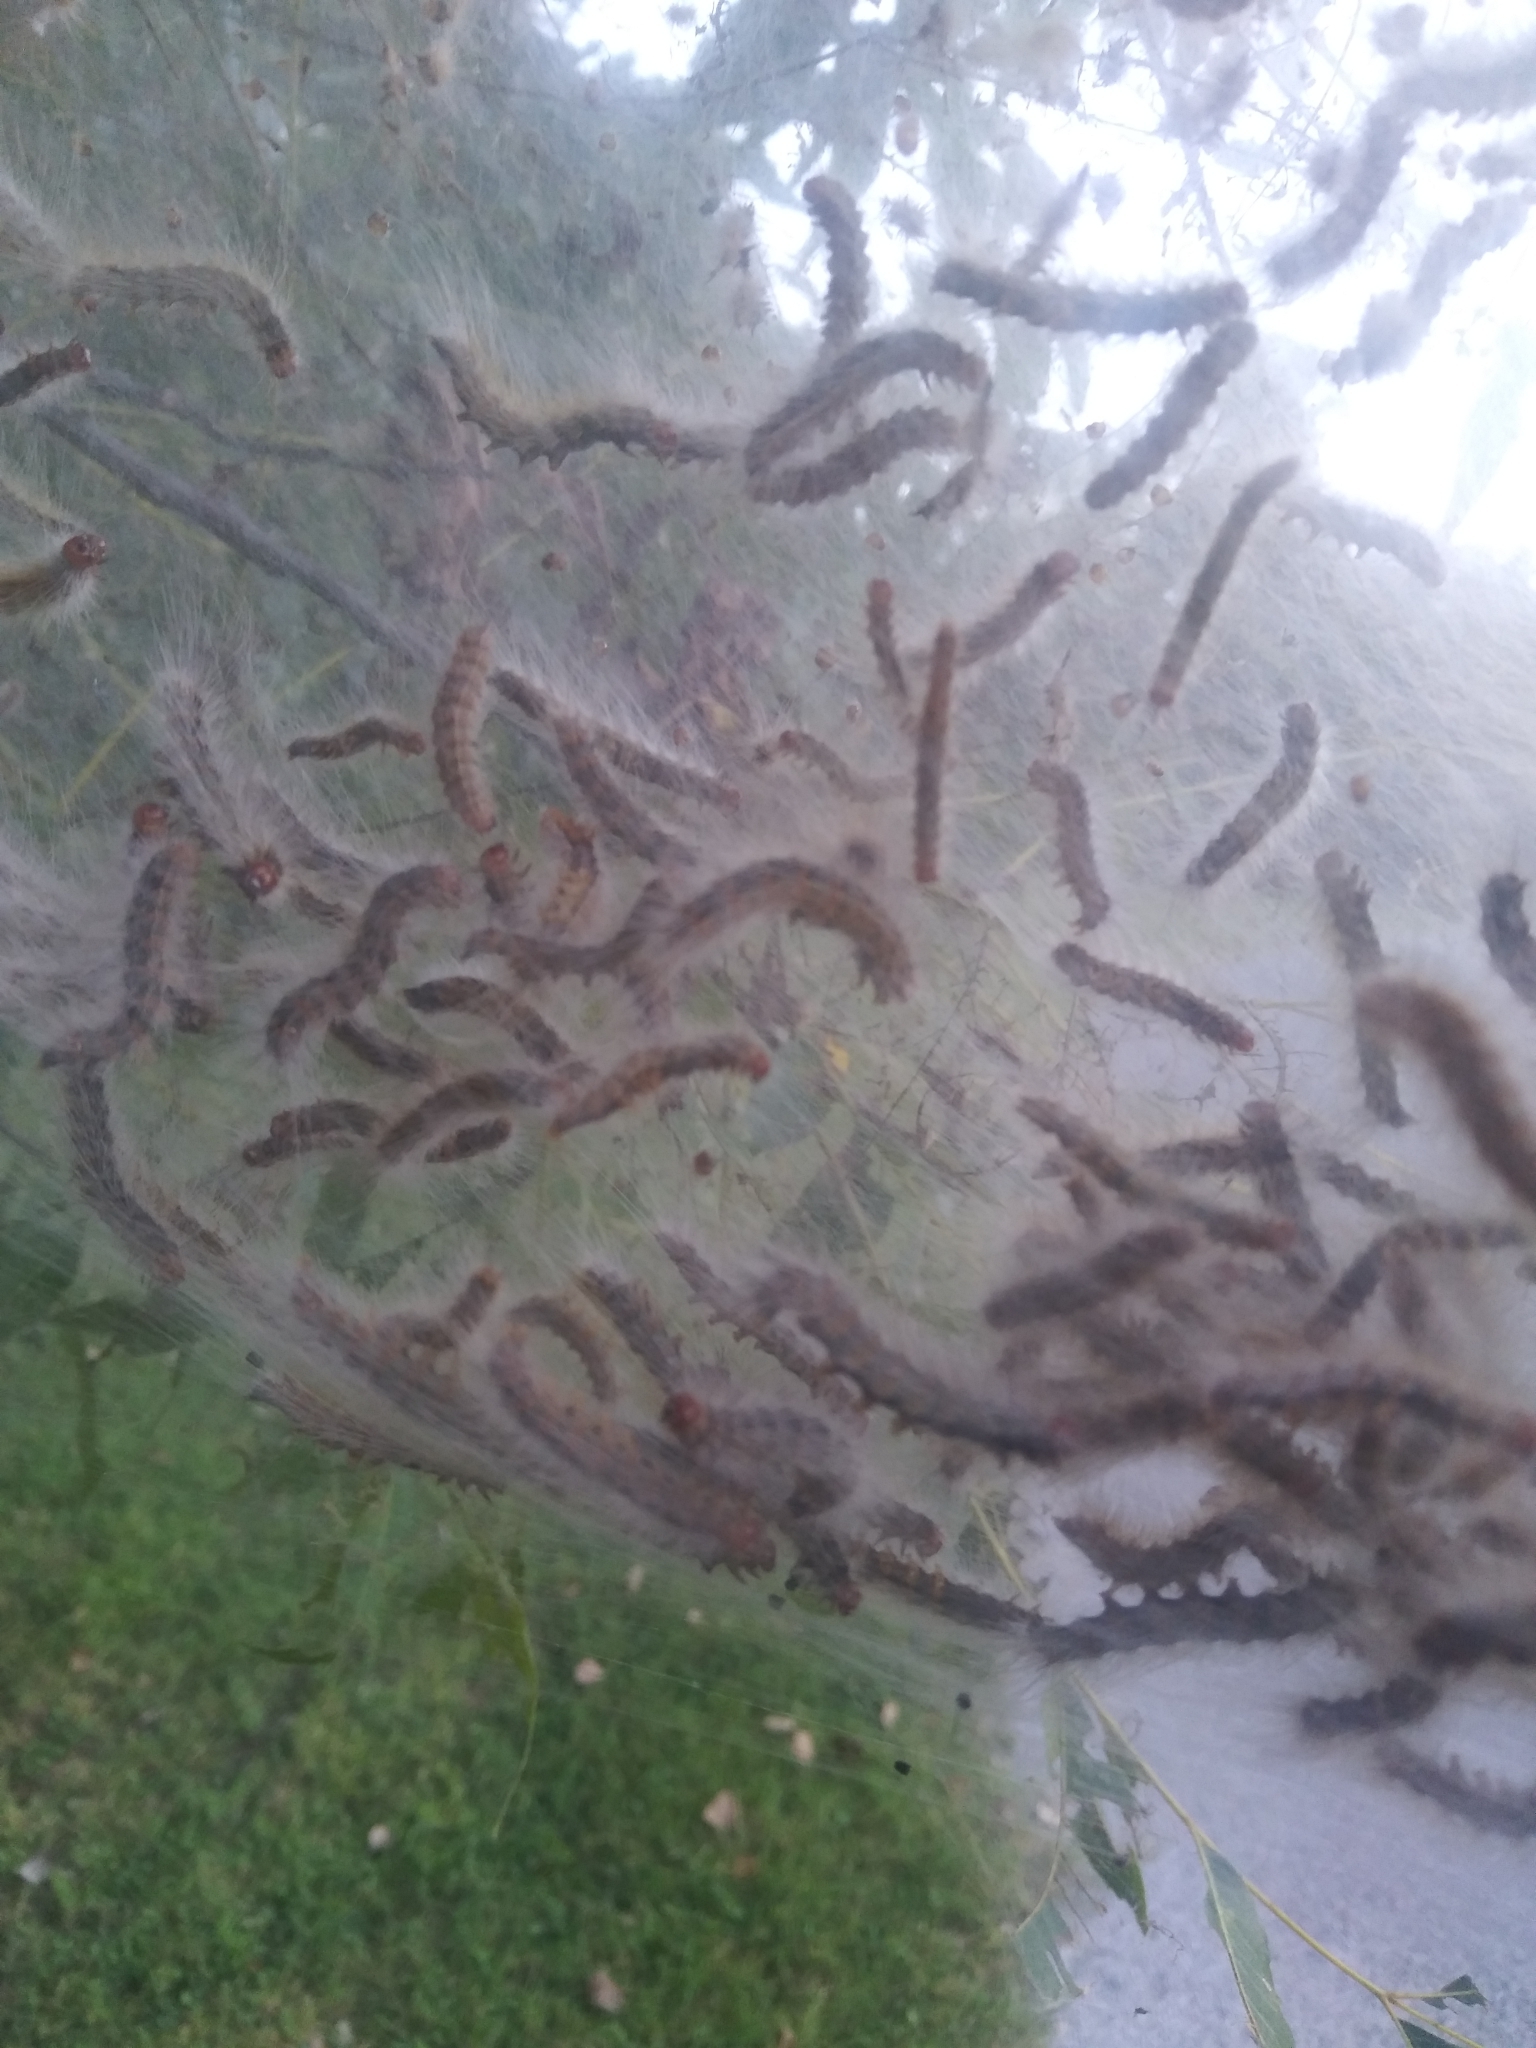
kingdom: Animalia
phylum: Arthropoda
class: Insecta
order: Lepidoptera
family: Erebidae
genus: Hyphantria
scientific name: Hyphantria cunea
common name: American white moth
